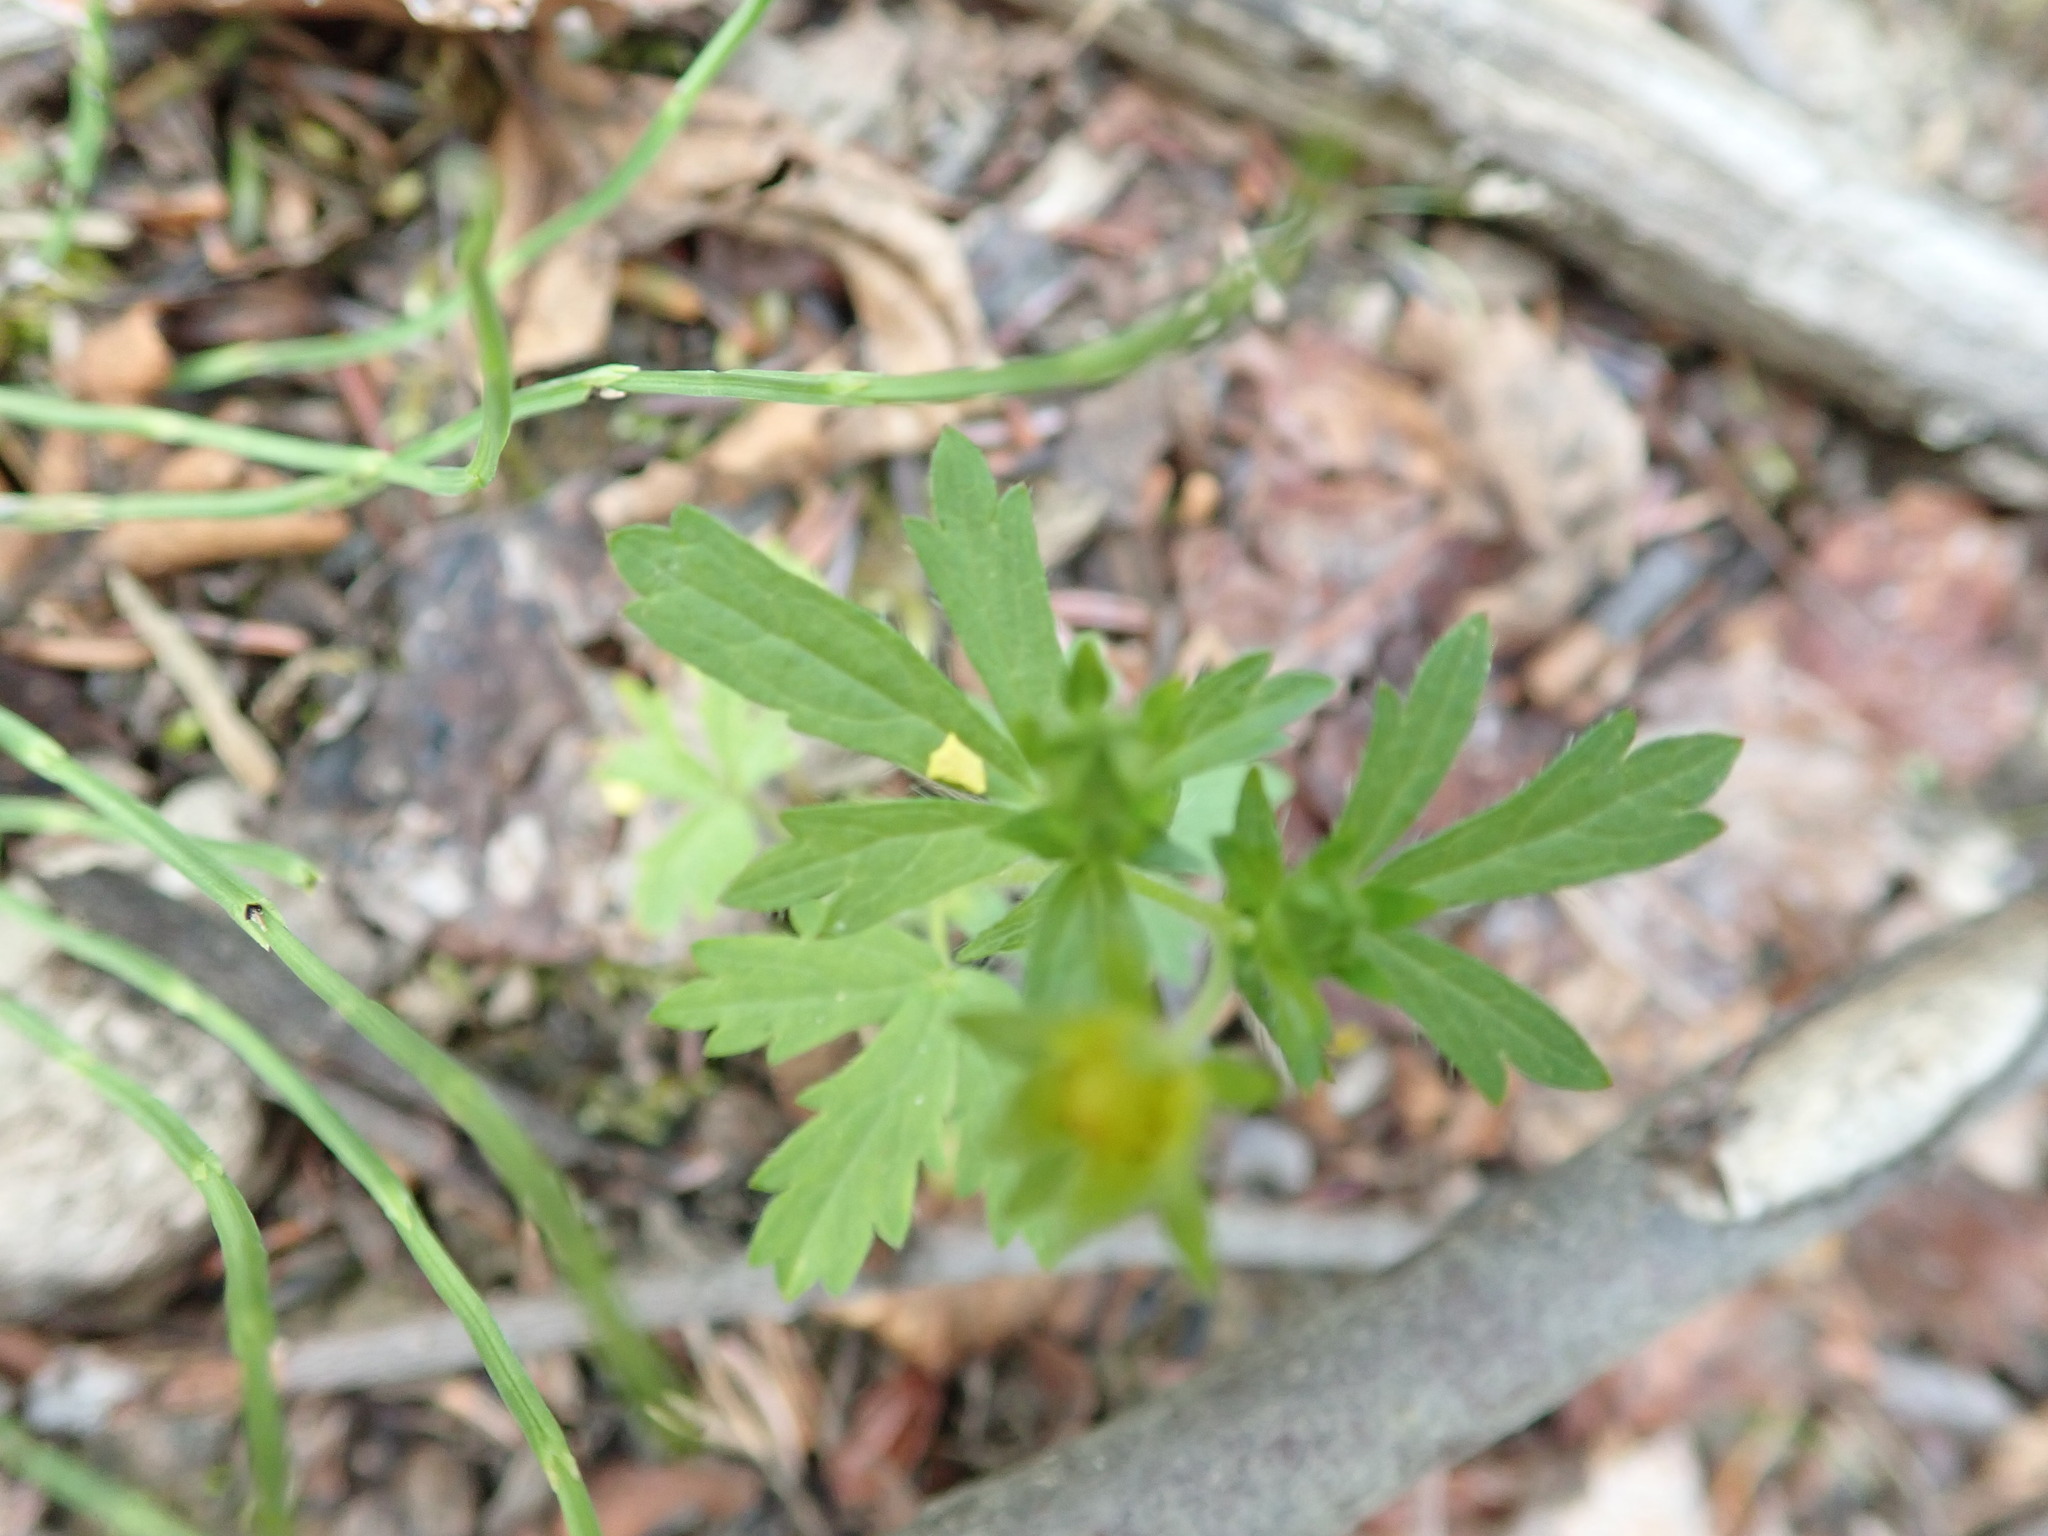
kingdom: Plantae
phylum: Tracheophyta
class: Magnoliopsida
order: Rosales
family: Rosaceae
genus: Potentilla
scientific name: Potentilla norvegica
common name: Ternate-leaved cinquefoil
